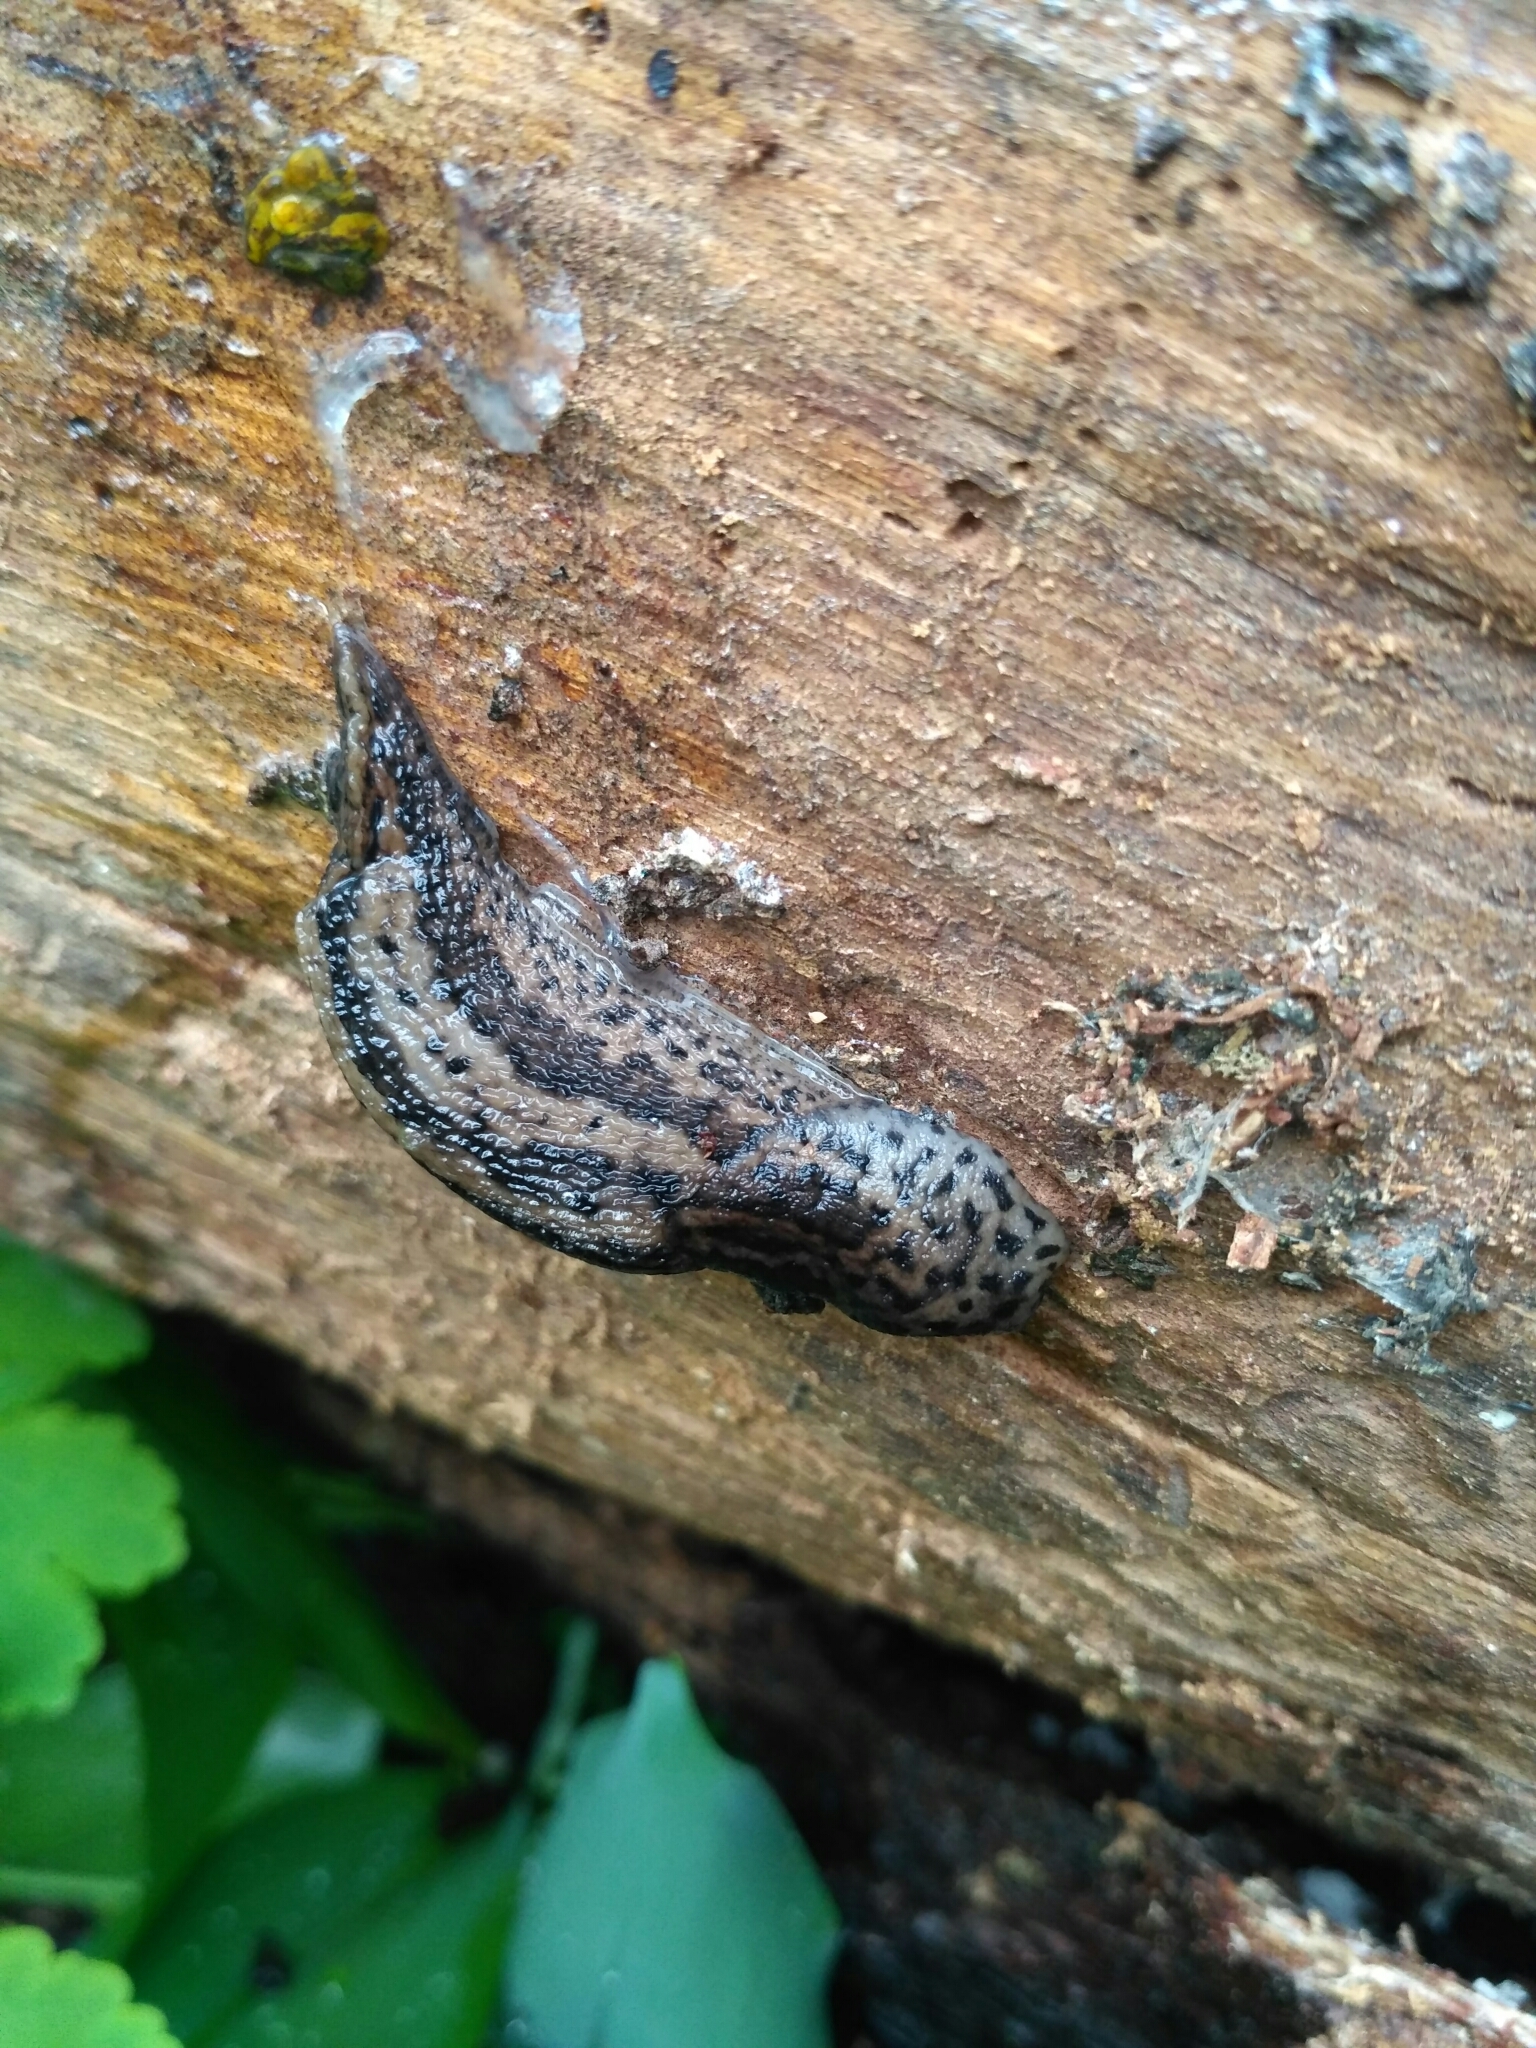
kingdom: Animalia
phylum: Mollusca
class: Gastropoda
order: Stylommatophora
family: Limacidae
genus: Limax
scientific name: Limax maximus
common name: Great grey slug
